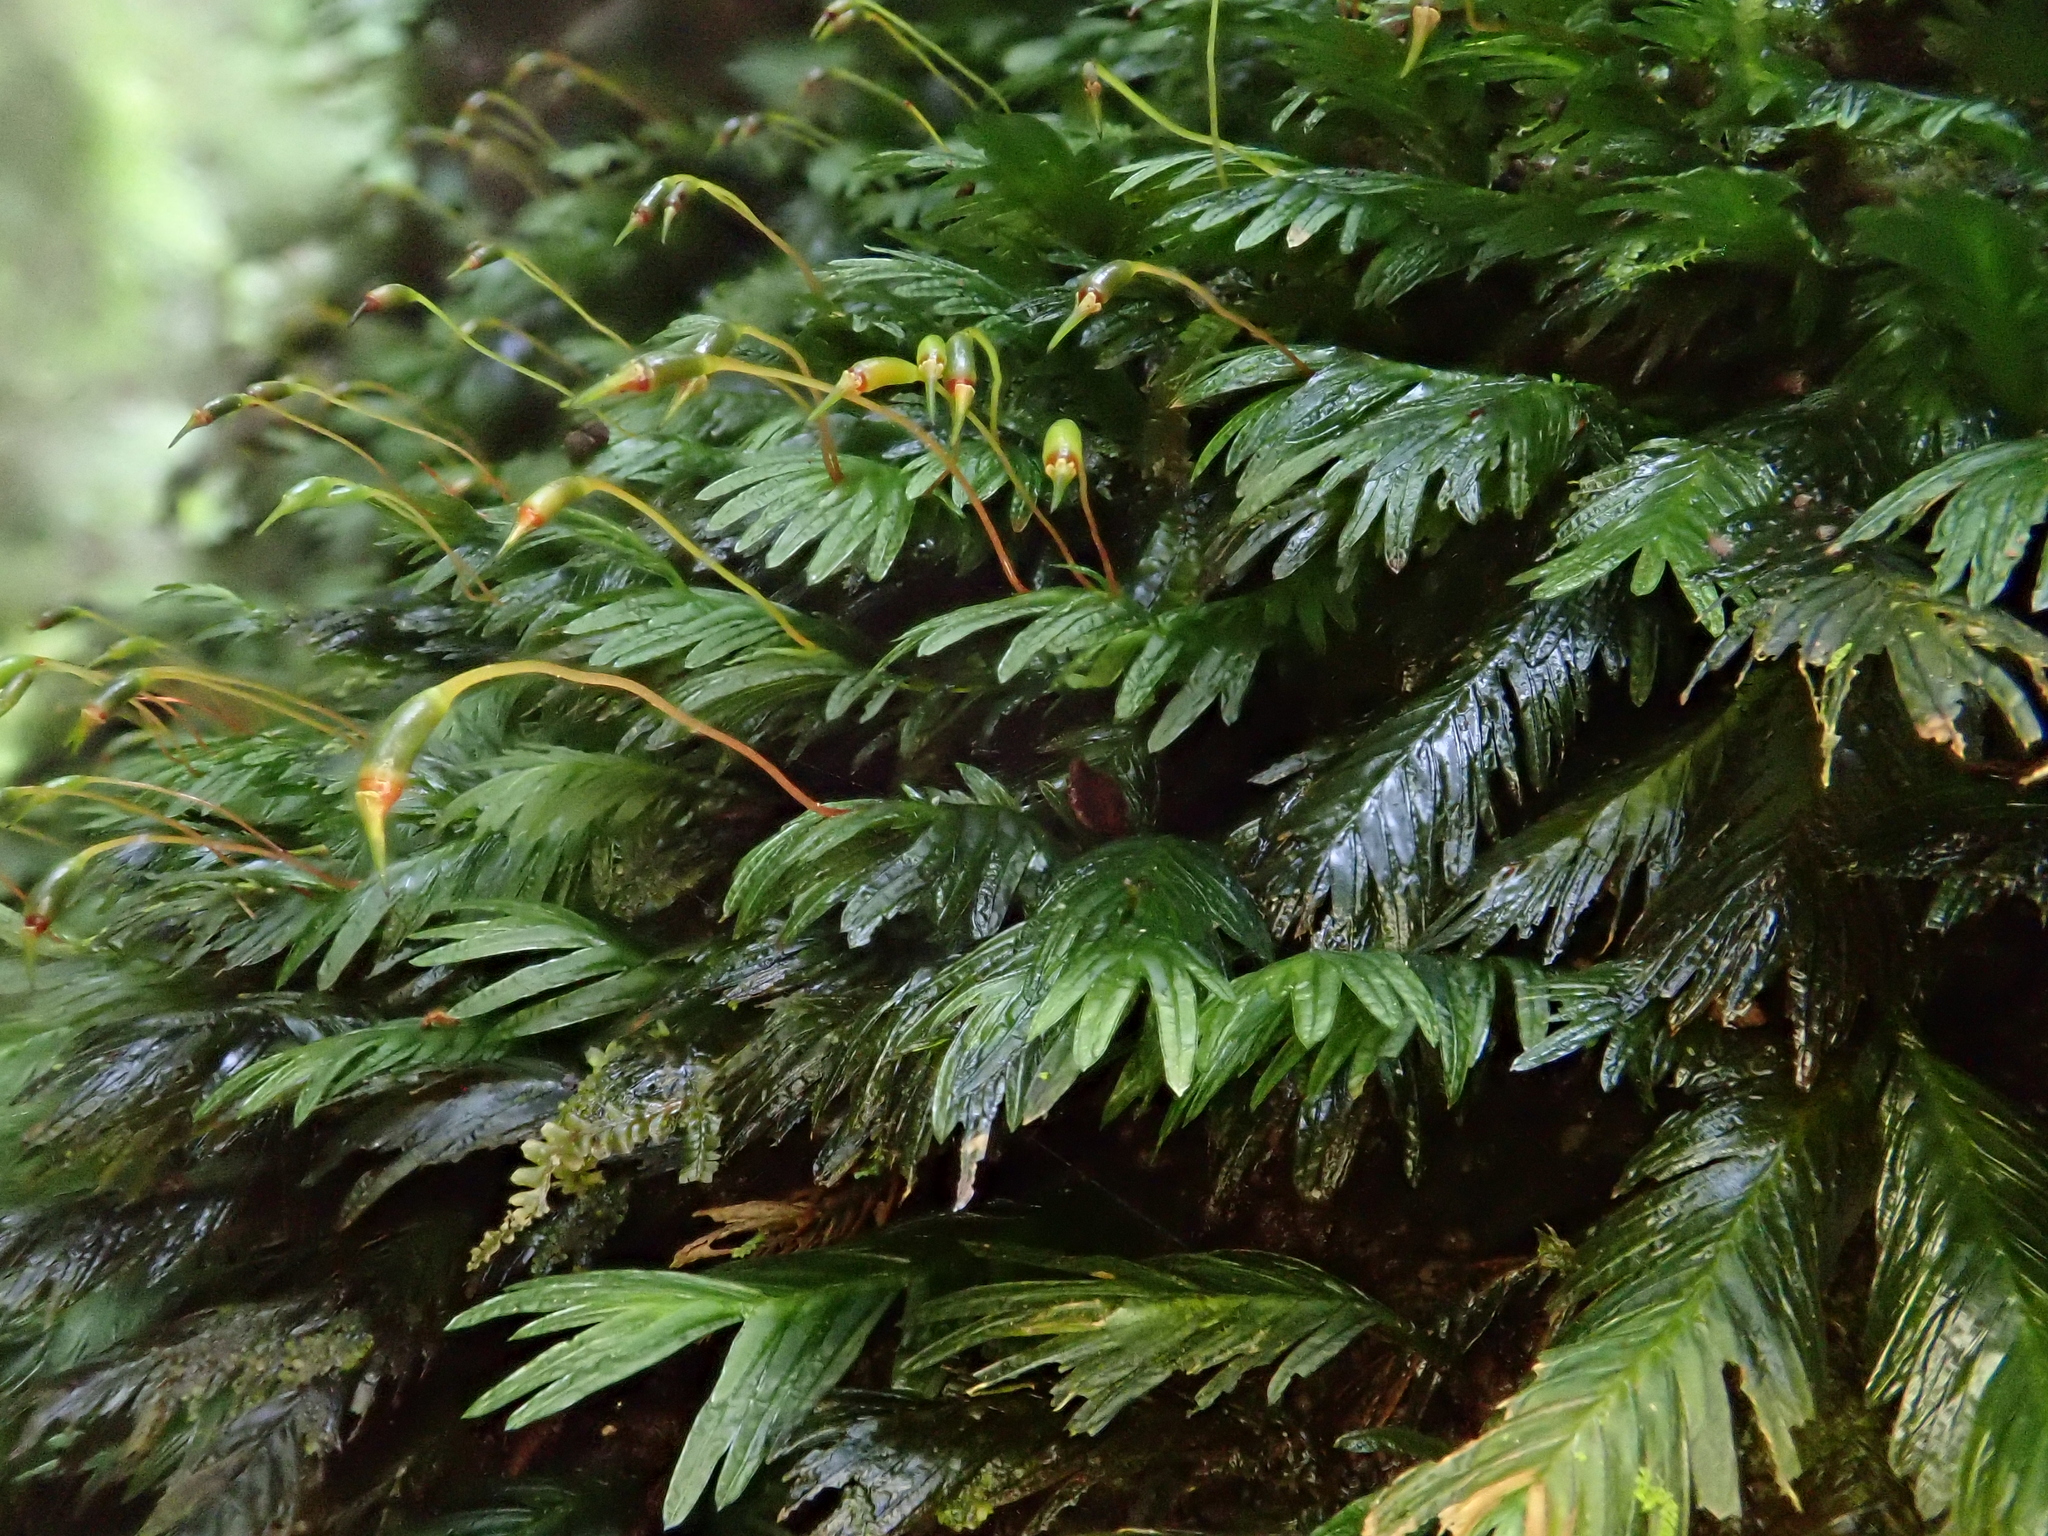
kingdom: Plantae
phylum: Bryophyta
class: Bryopsida
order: Dicranales
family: Fissidentaceae
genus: Fissidens
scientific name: Fissidens serrulatus
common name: Large atlantic pocket-moss
